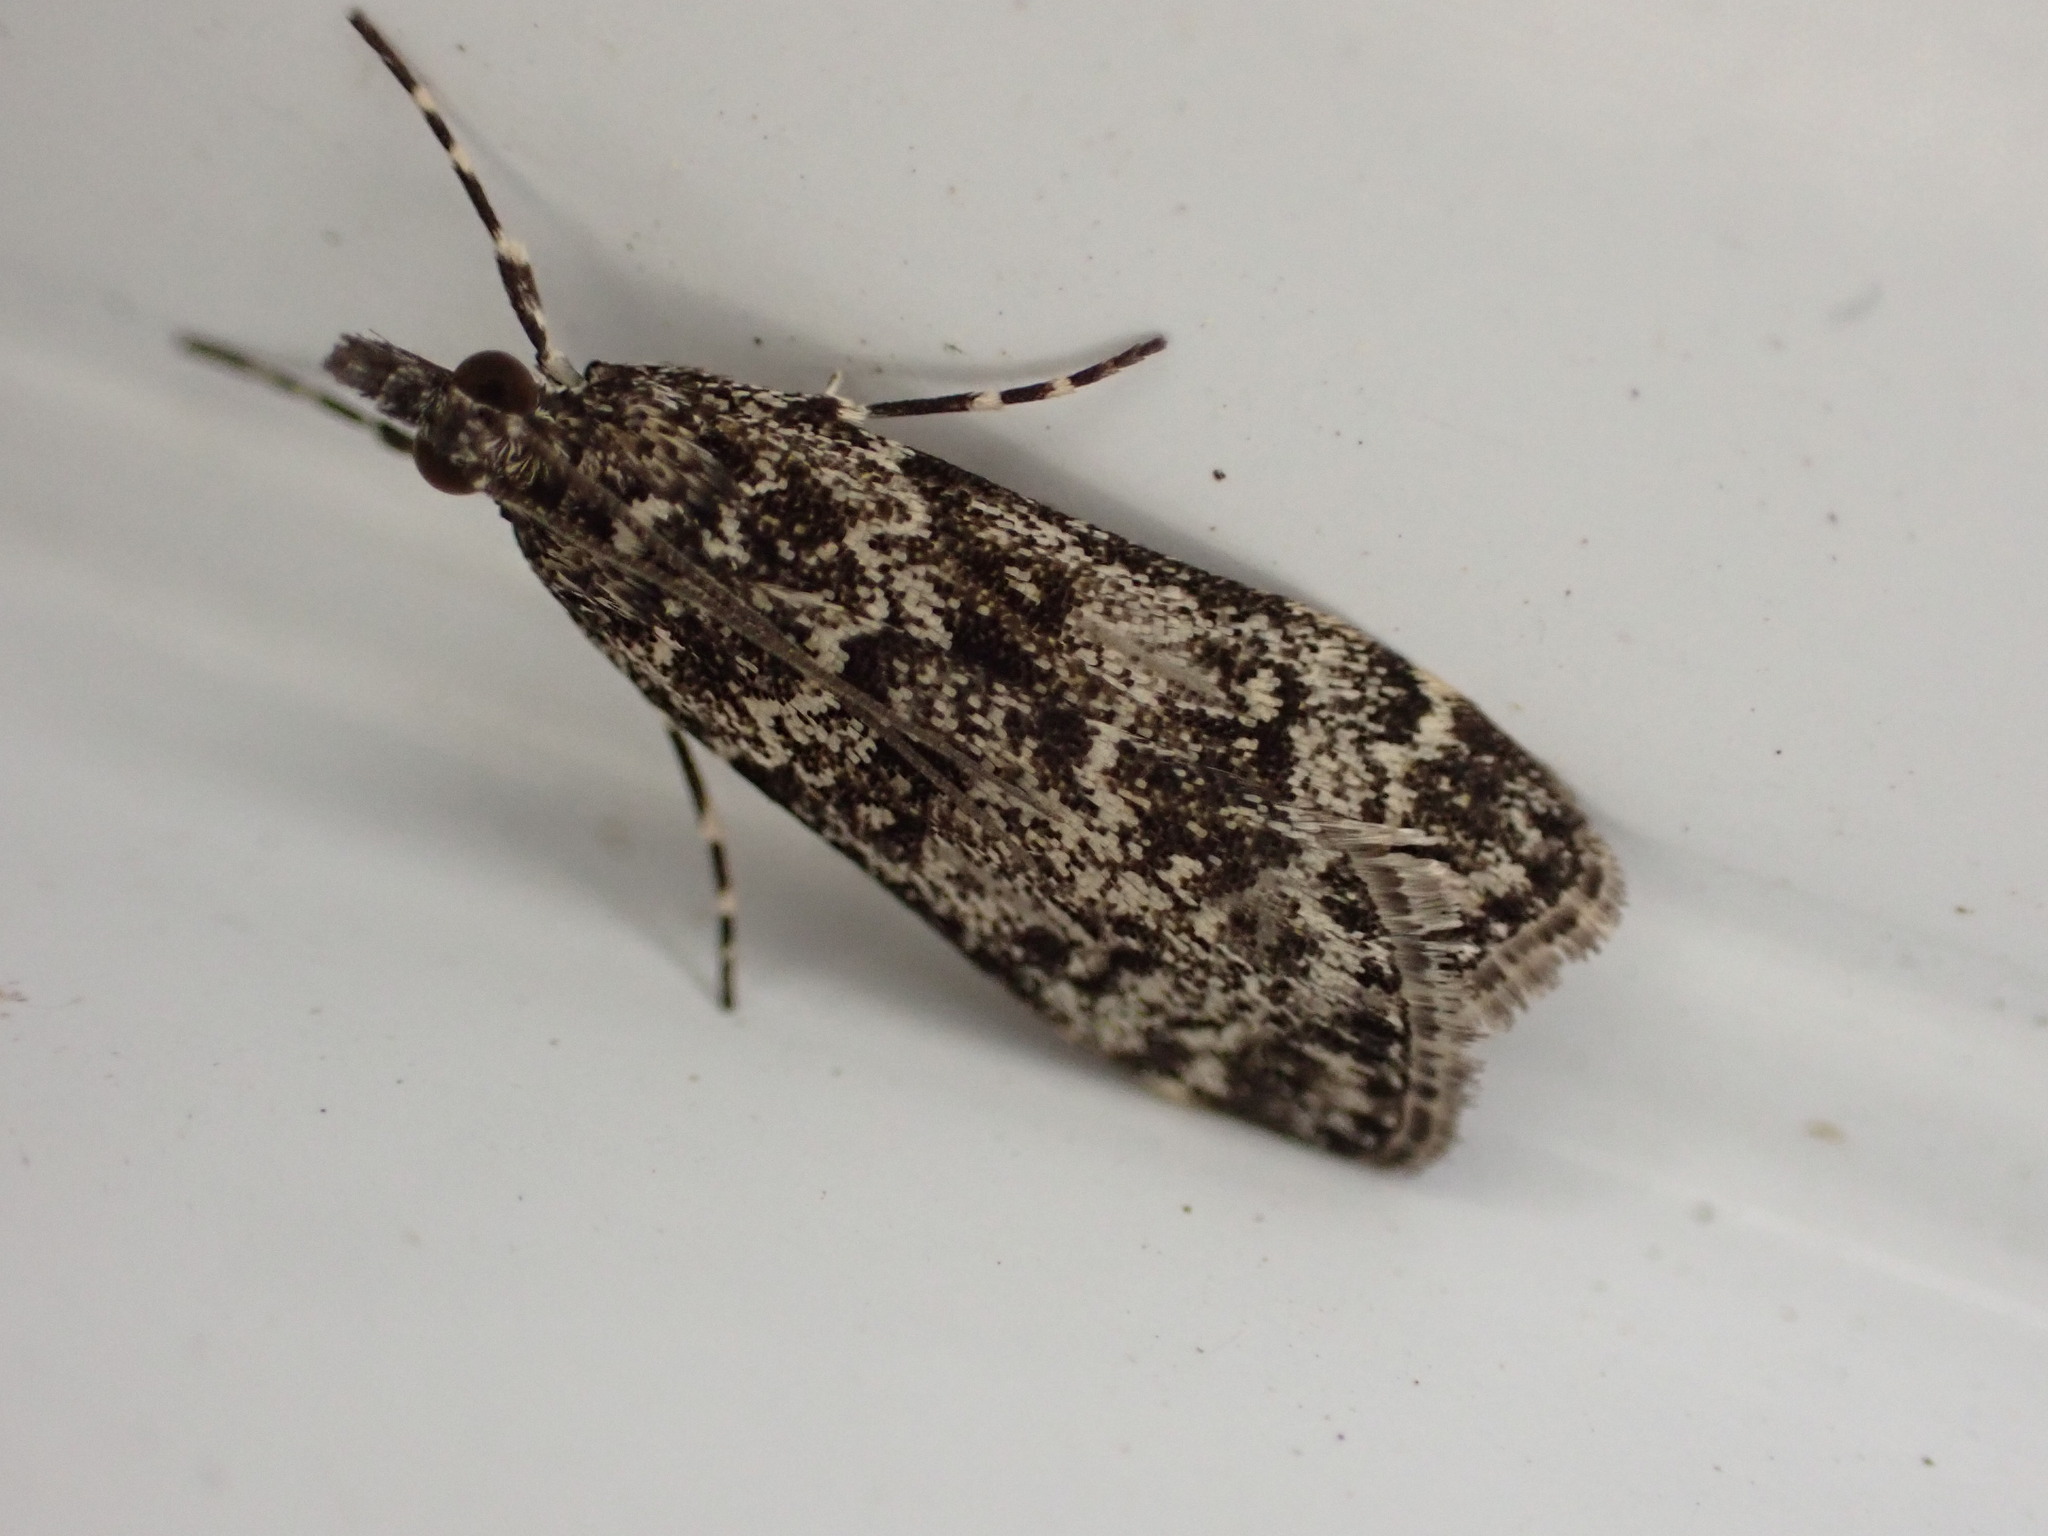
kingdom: Animalia
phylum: Arthropoda
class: Insecta
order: Lepidoptera
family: Crambidae
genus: Eudonia
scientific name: Eudonia philerga
